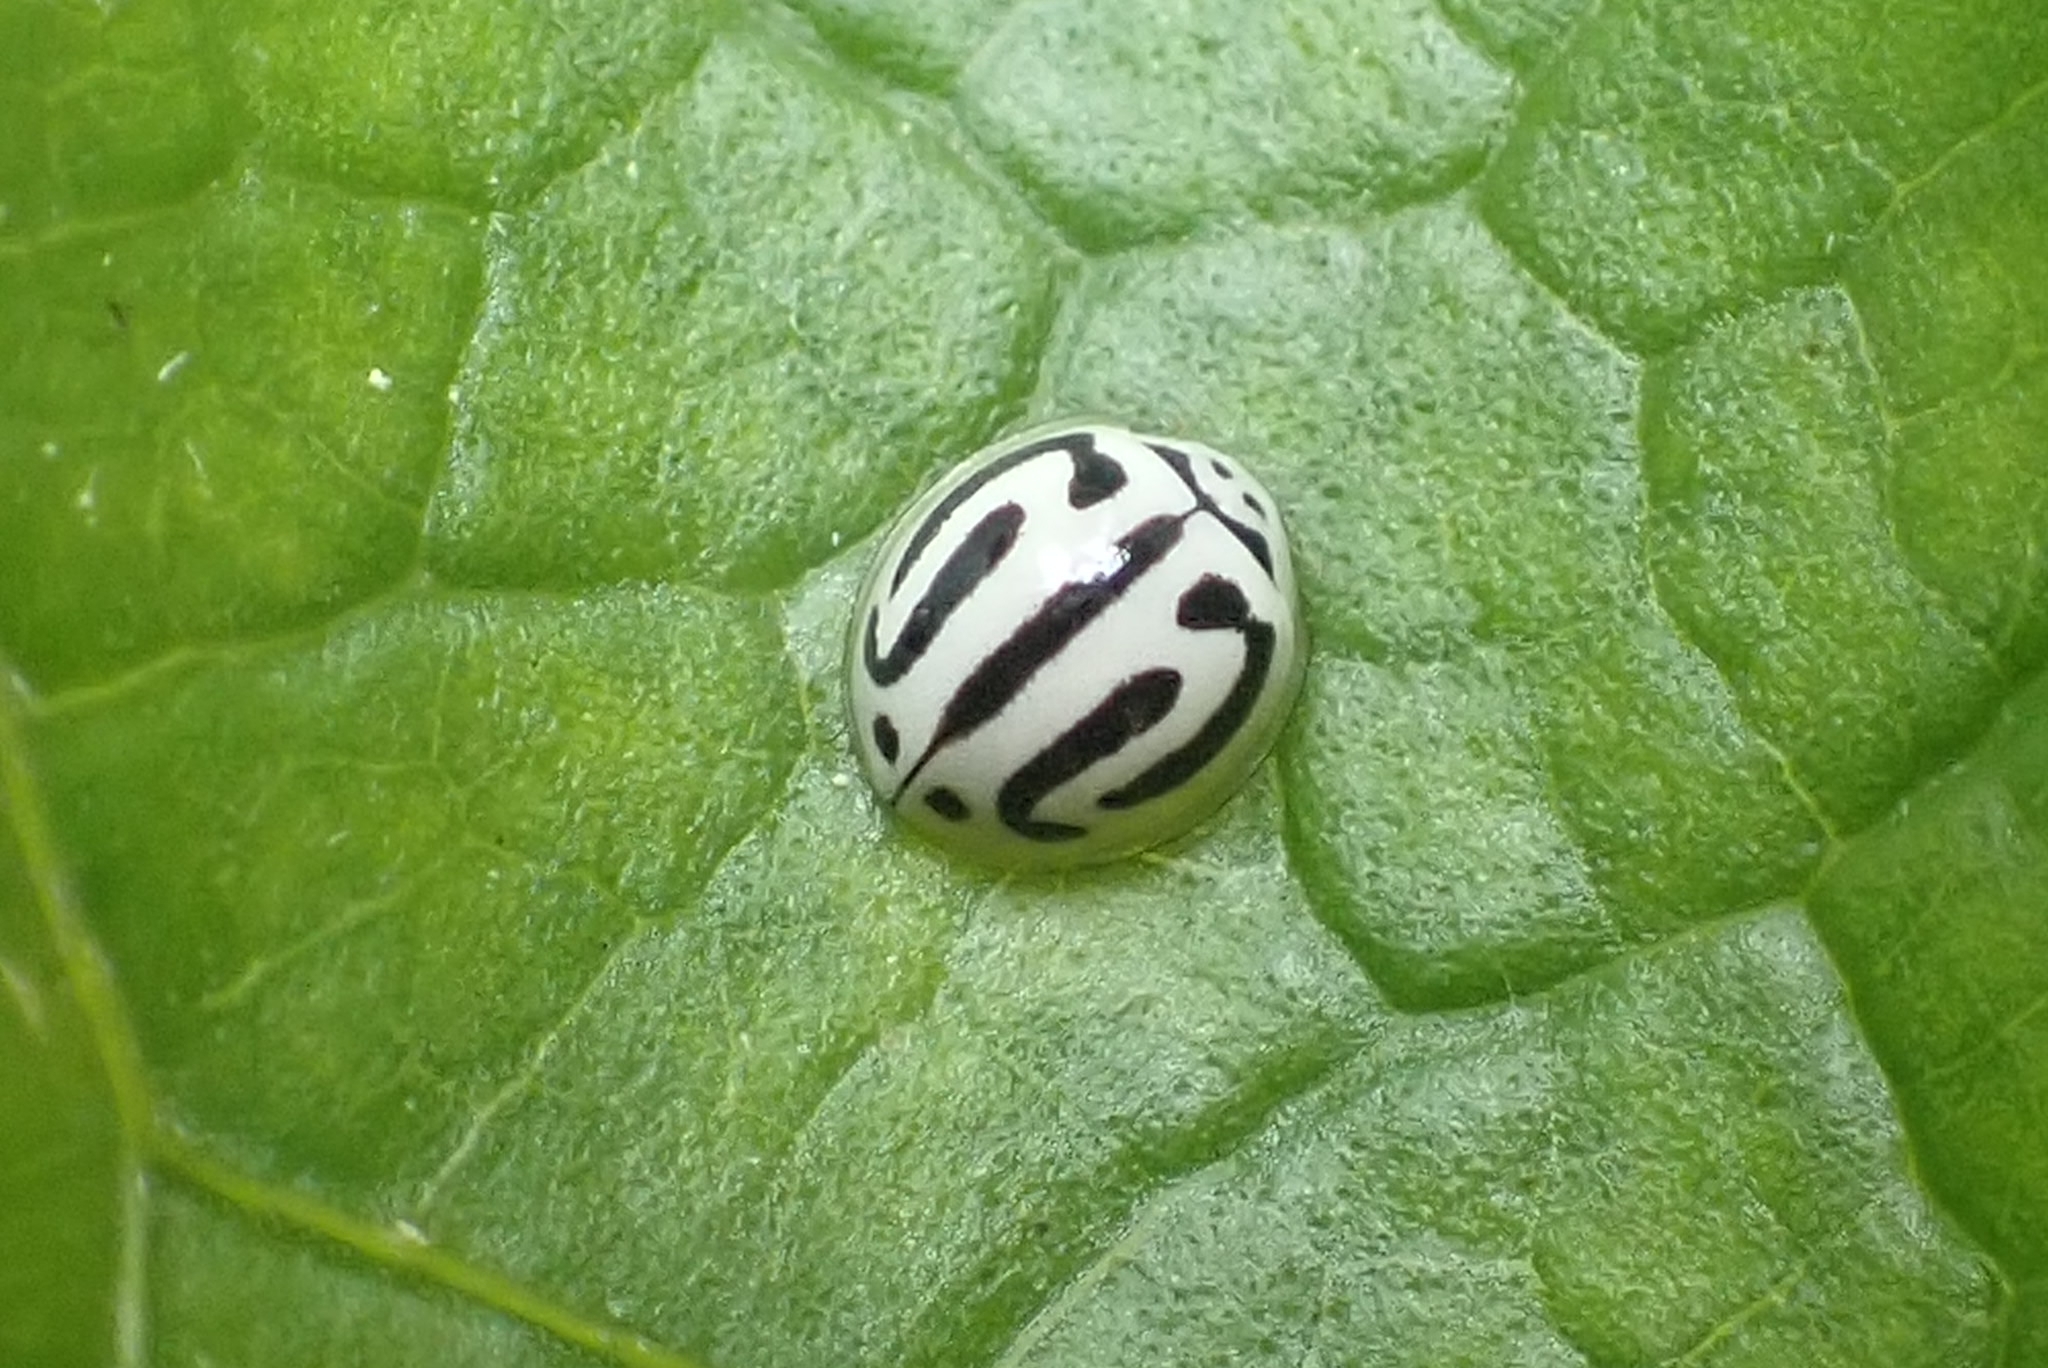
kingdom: Animalia
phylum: Arthropoda
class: Insecta
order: Coleoptera
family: Coccinellidae
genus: Anegleis
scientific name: Anegleis cardoni
